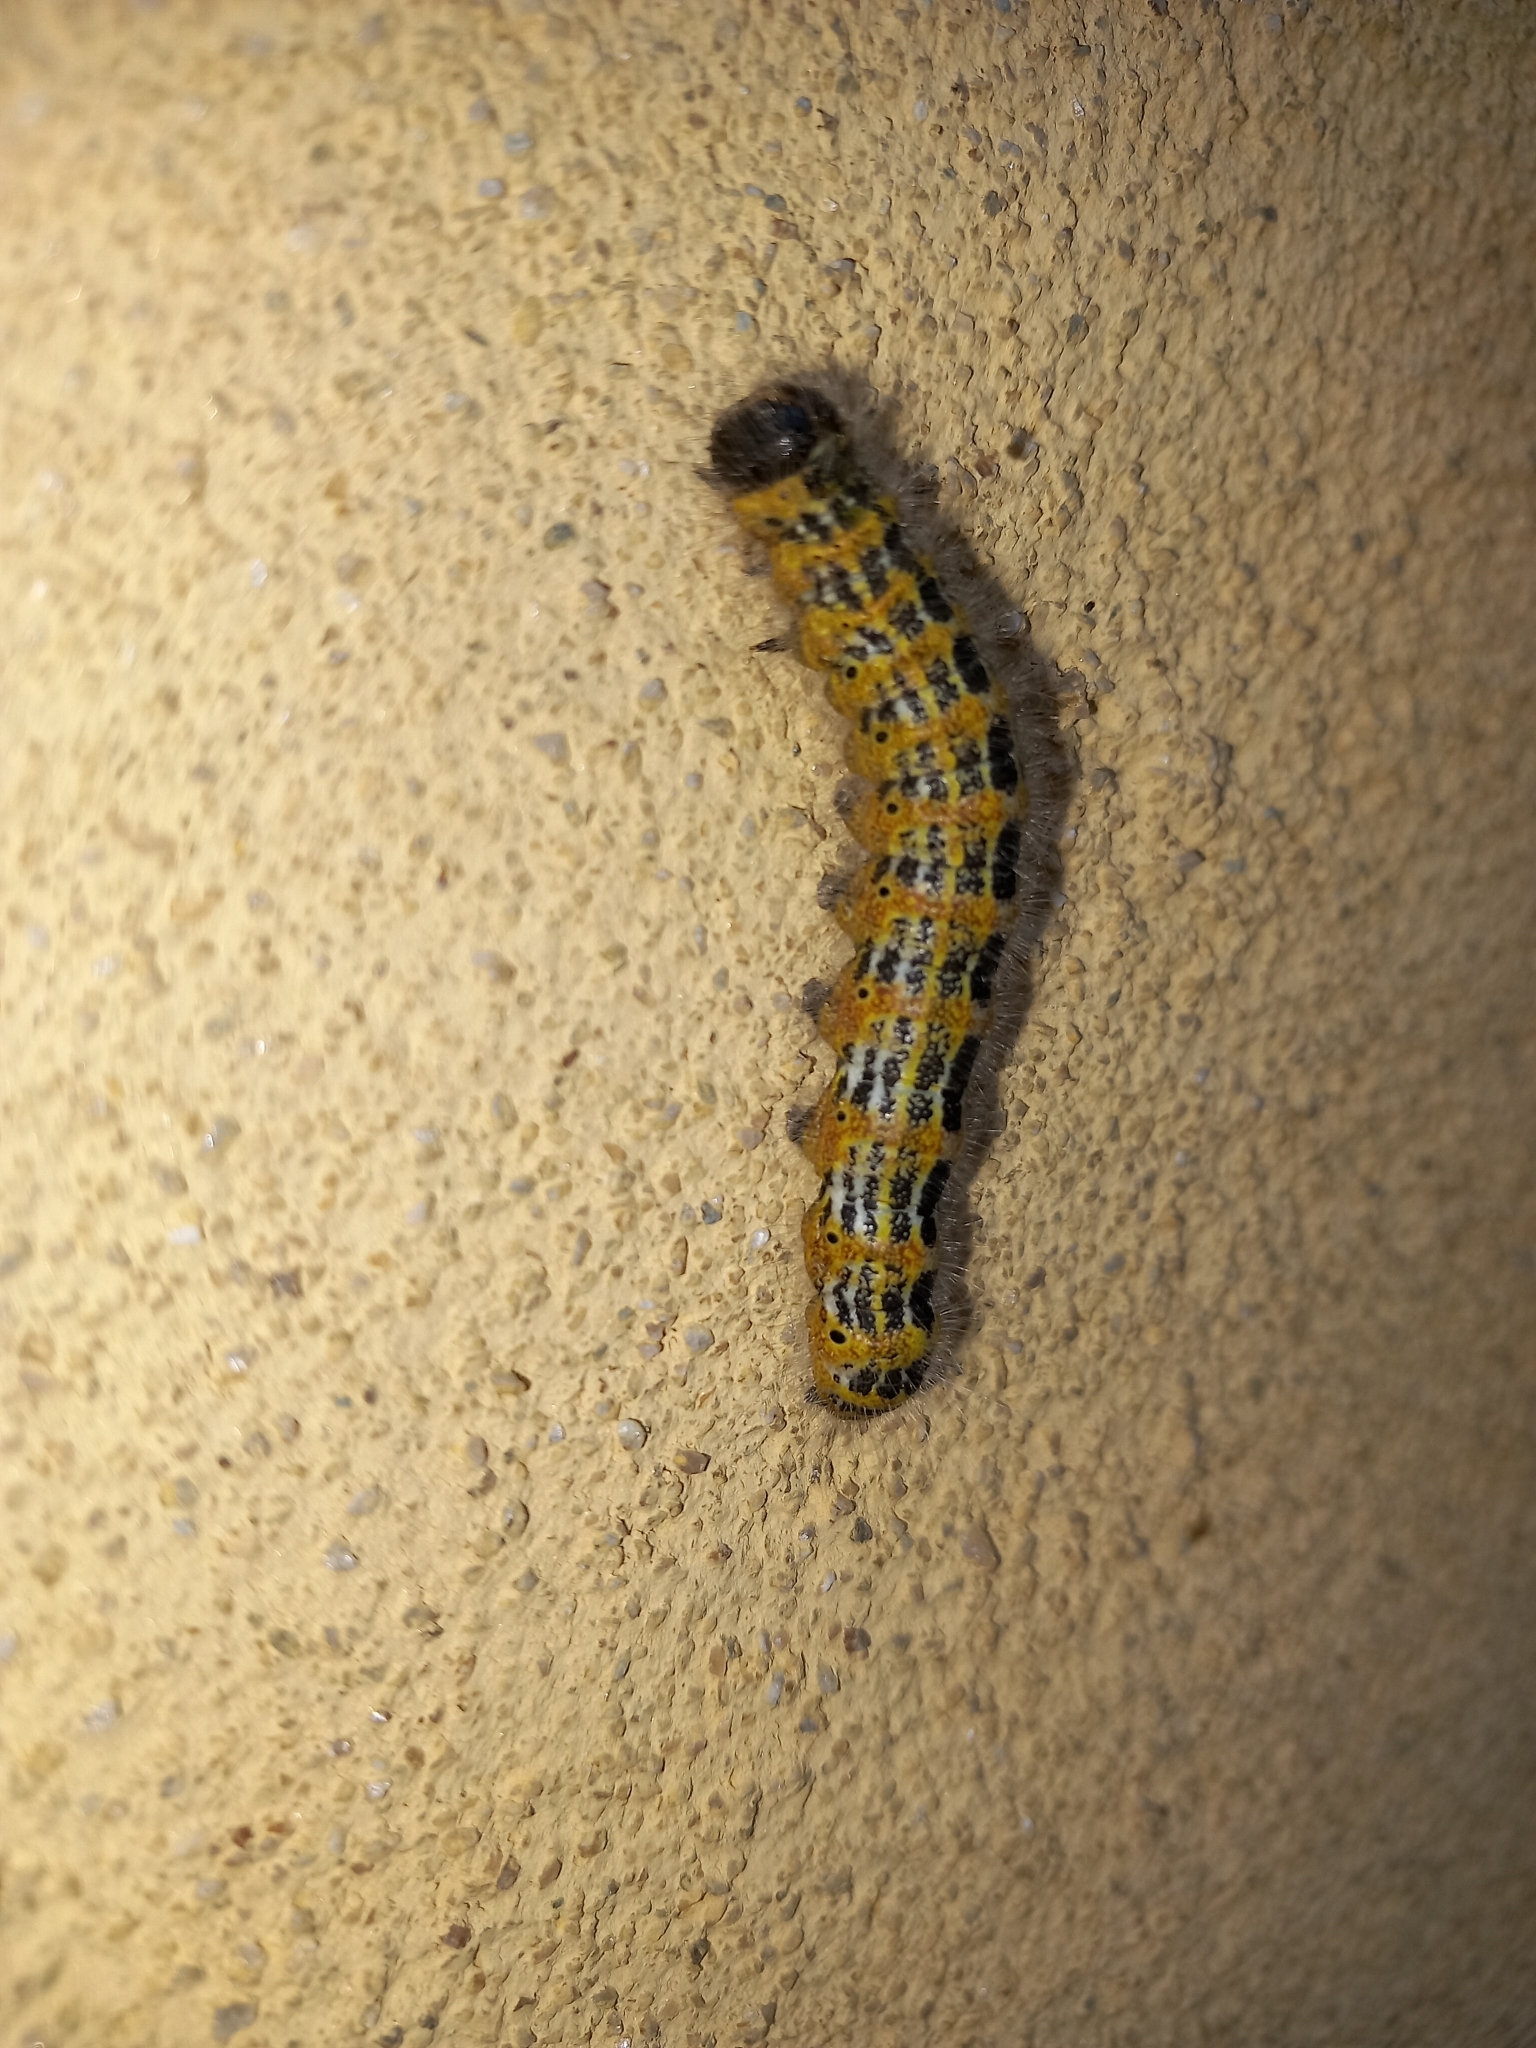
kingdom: Animalia
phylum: Arthropoda
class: Insecta
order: Lepidoptera
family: Notodontidae
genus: Phalera
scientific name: Phalera bucephala
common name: Buff-tip
